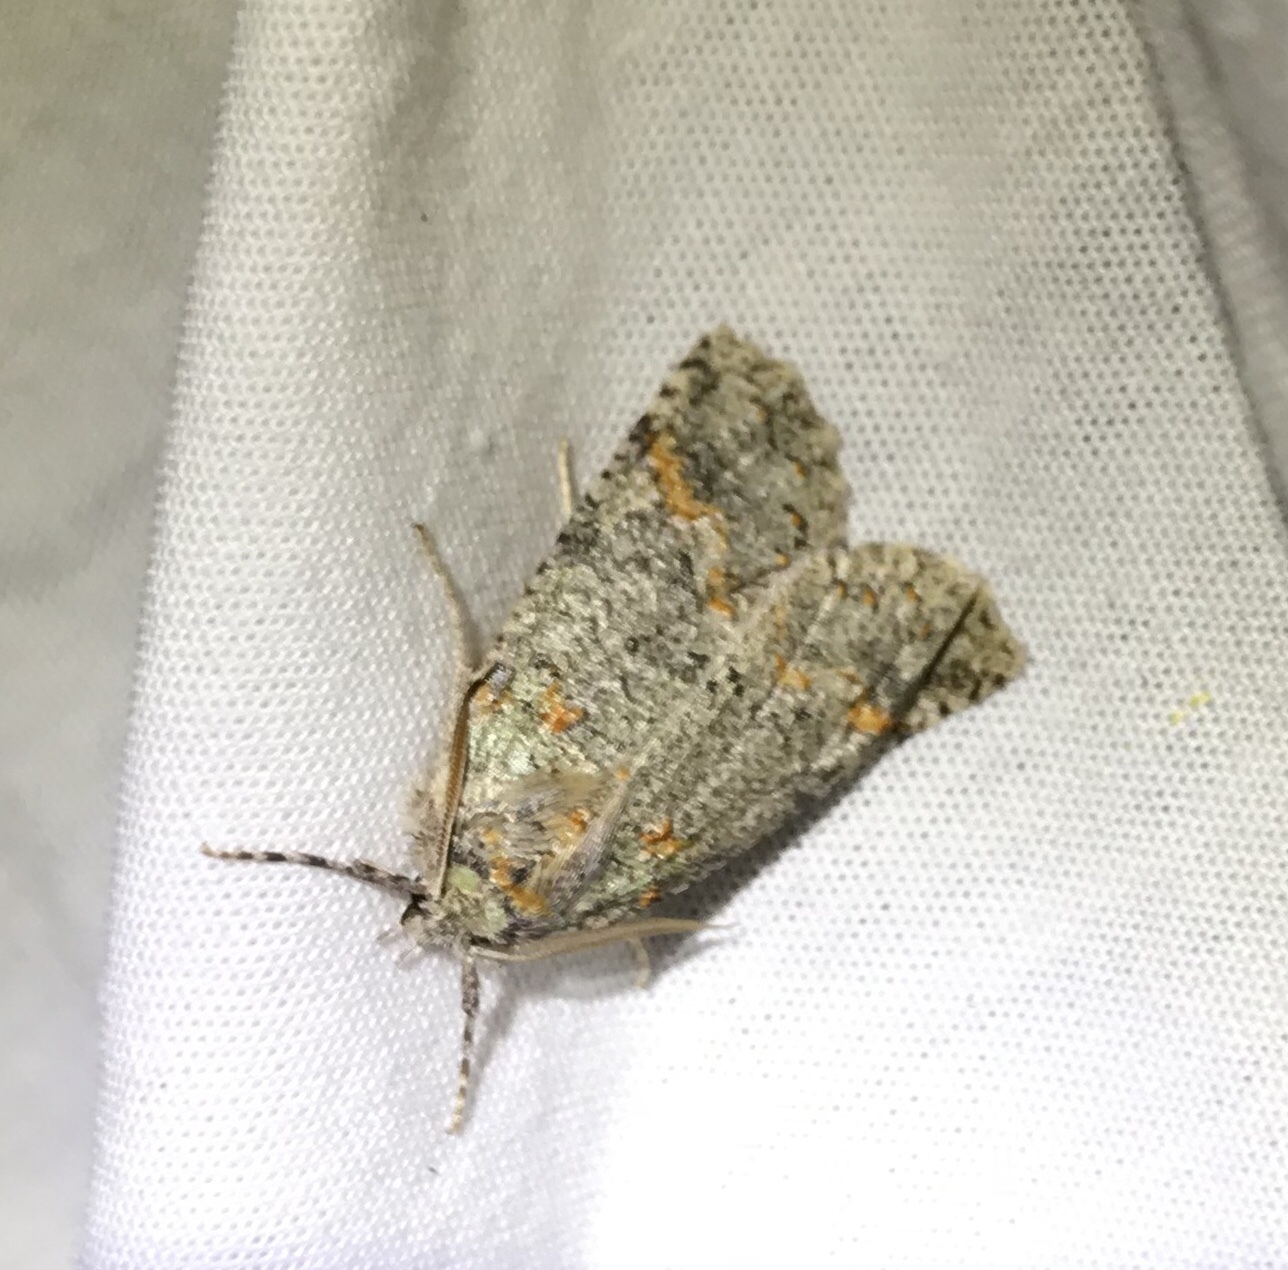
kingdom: Animalia
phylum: Arthropoda
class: Insecta
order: Lepidoptera
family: Geometridae
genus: Declana
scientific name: Declana floccosa
